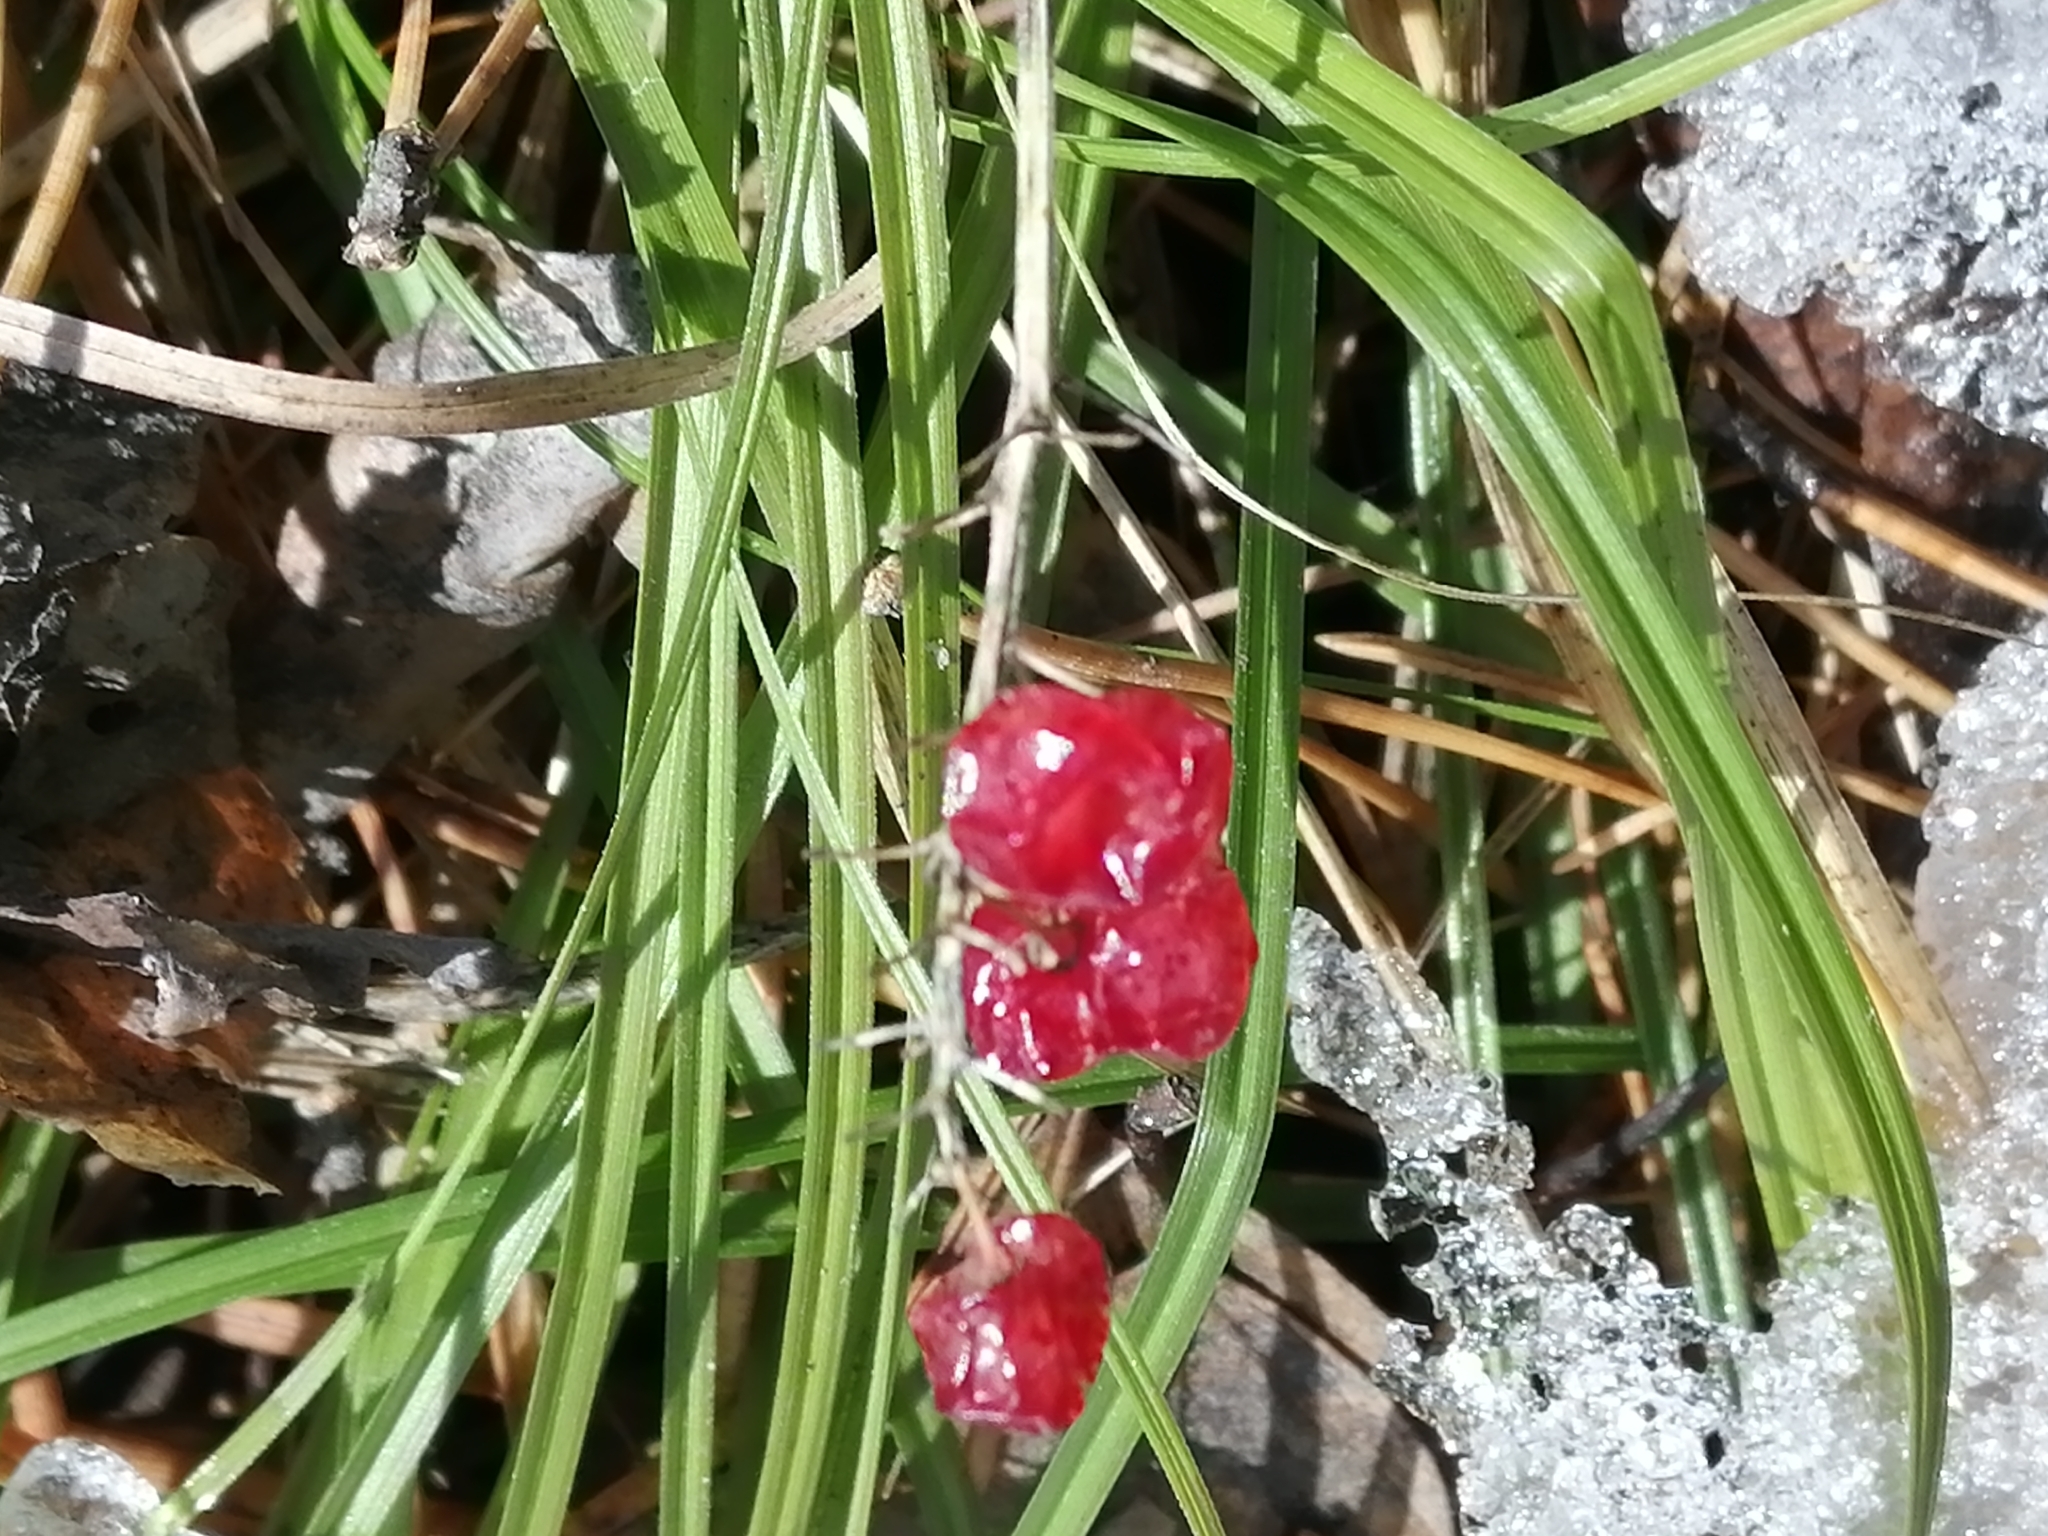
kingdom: Plantae
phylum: Tracheophyta
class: Liliopsida
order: Asparagales
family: Asparagaceae
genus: Maianthemum
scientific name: Maianthemum bifolium
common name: May lily
